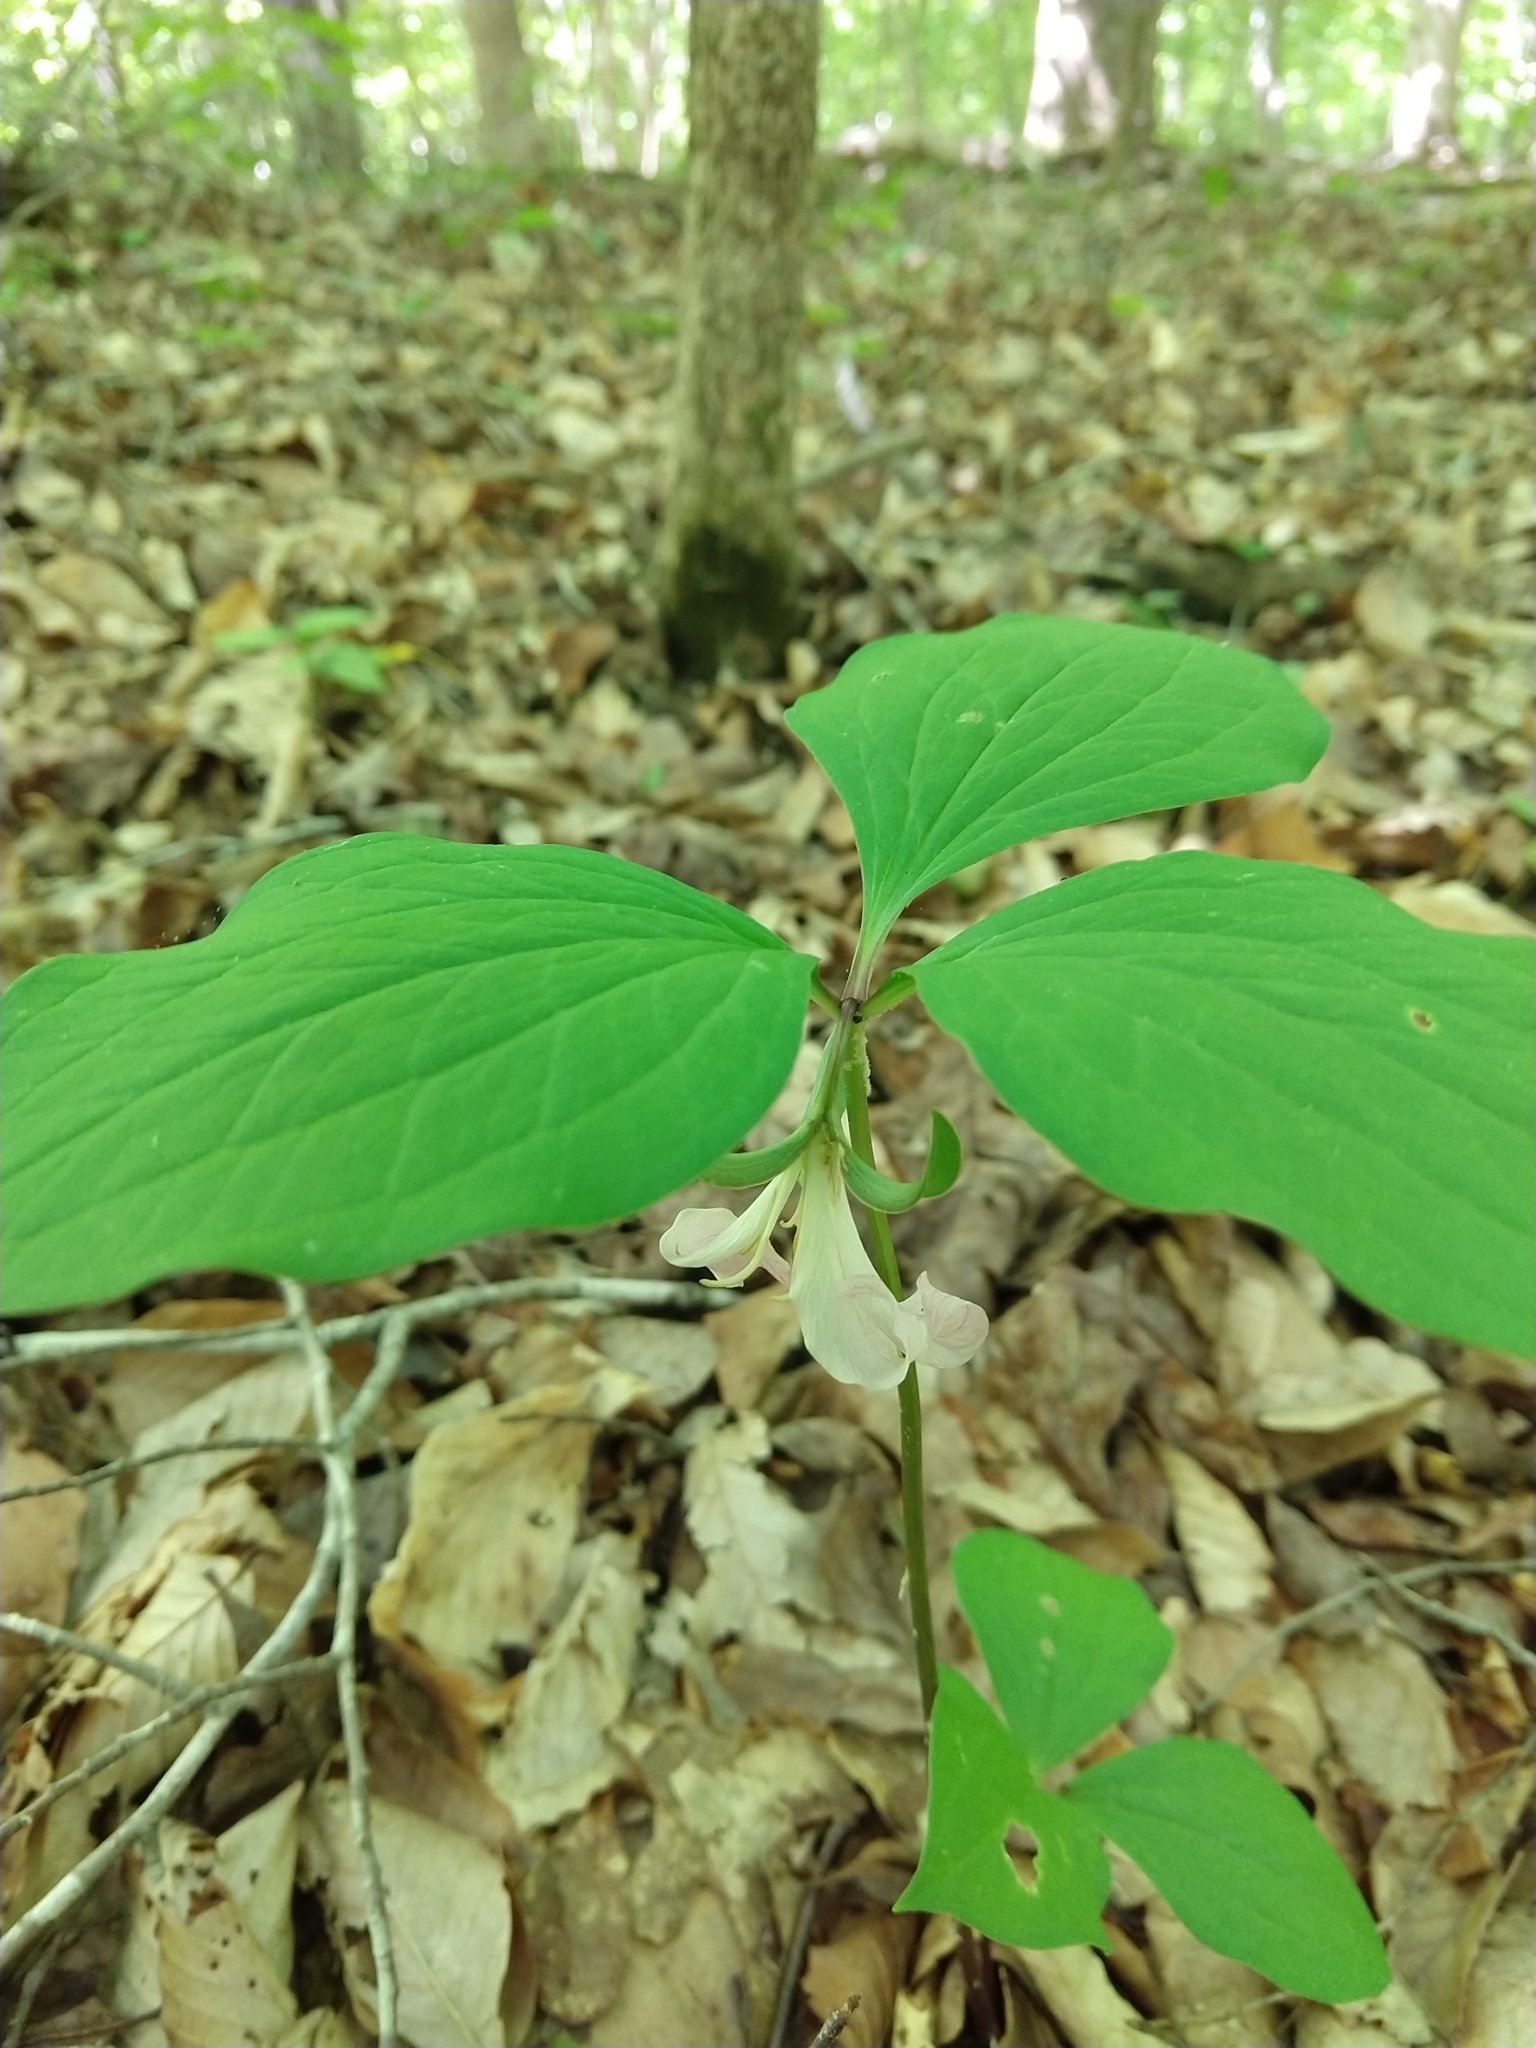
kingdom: Plantae
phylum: Tracheophyta
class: Liliopsida
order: Liliales
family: Melanthiaceae
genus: Trillium
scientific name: Trillium catesbaei
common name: Bashful trillium
